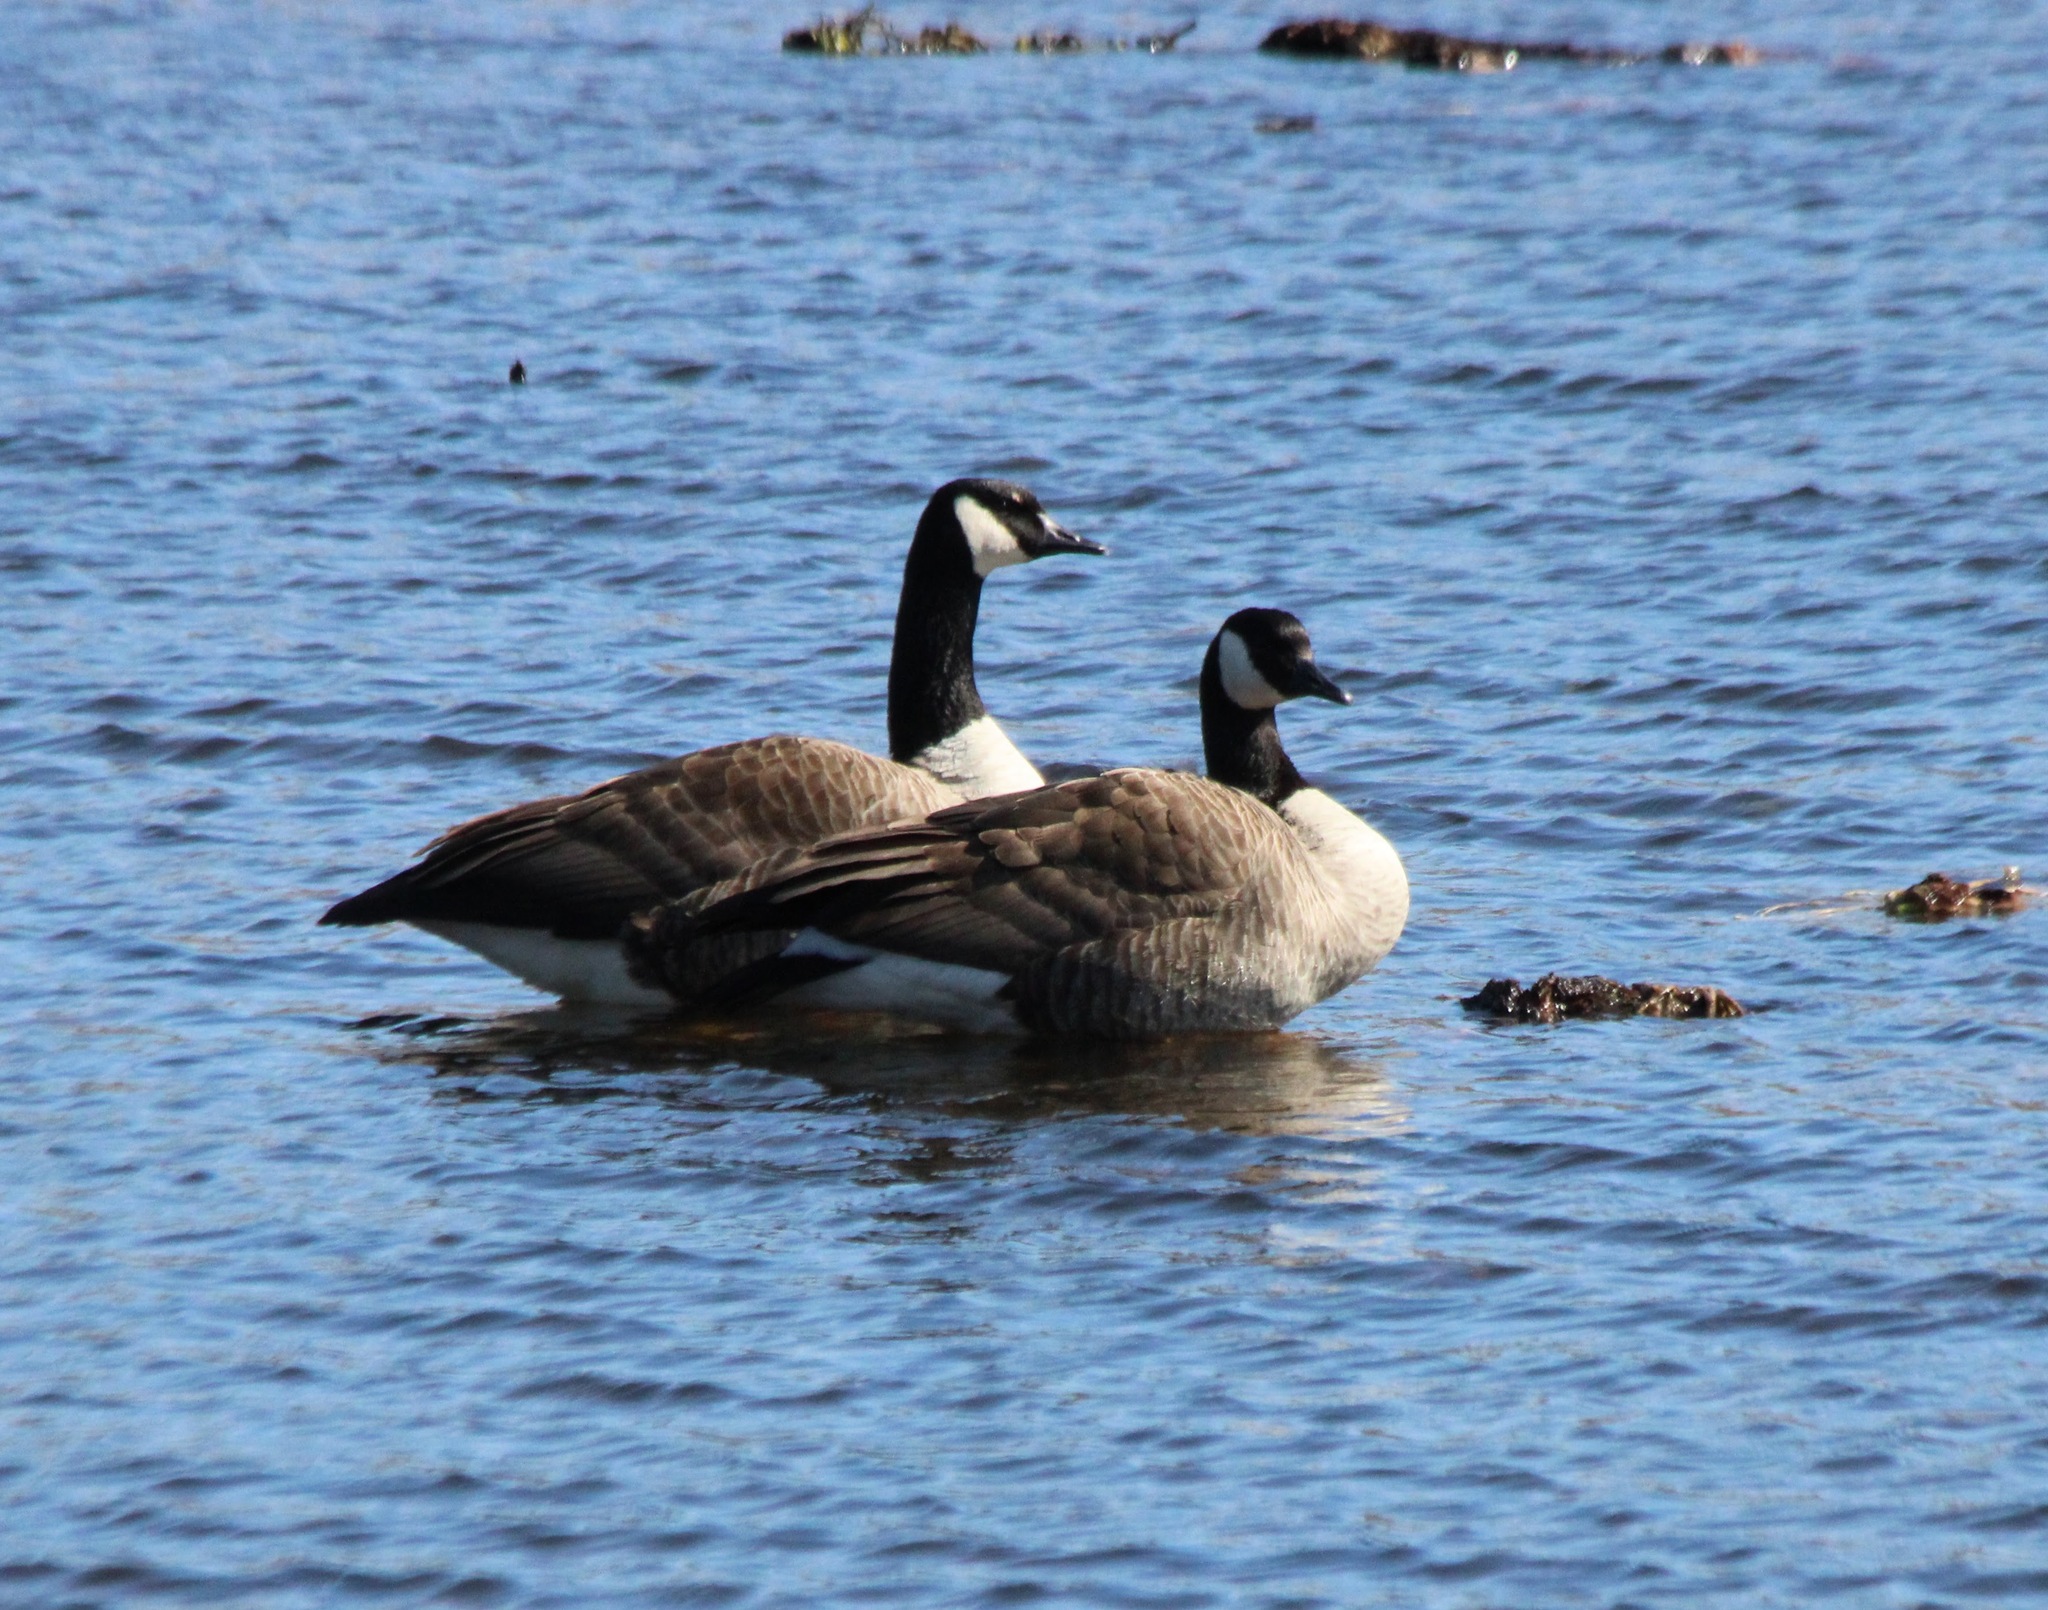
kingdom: Animalia
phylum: Chordata
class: Aves
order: Anseriformes
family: Anatidae
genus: Branta
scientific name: Branta canadensis
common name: Canada goose
